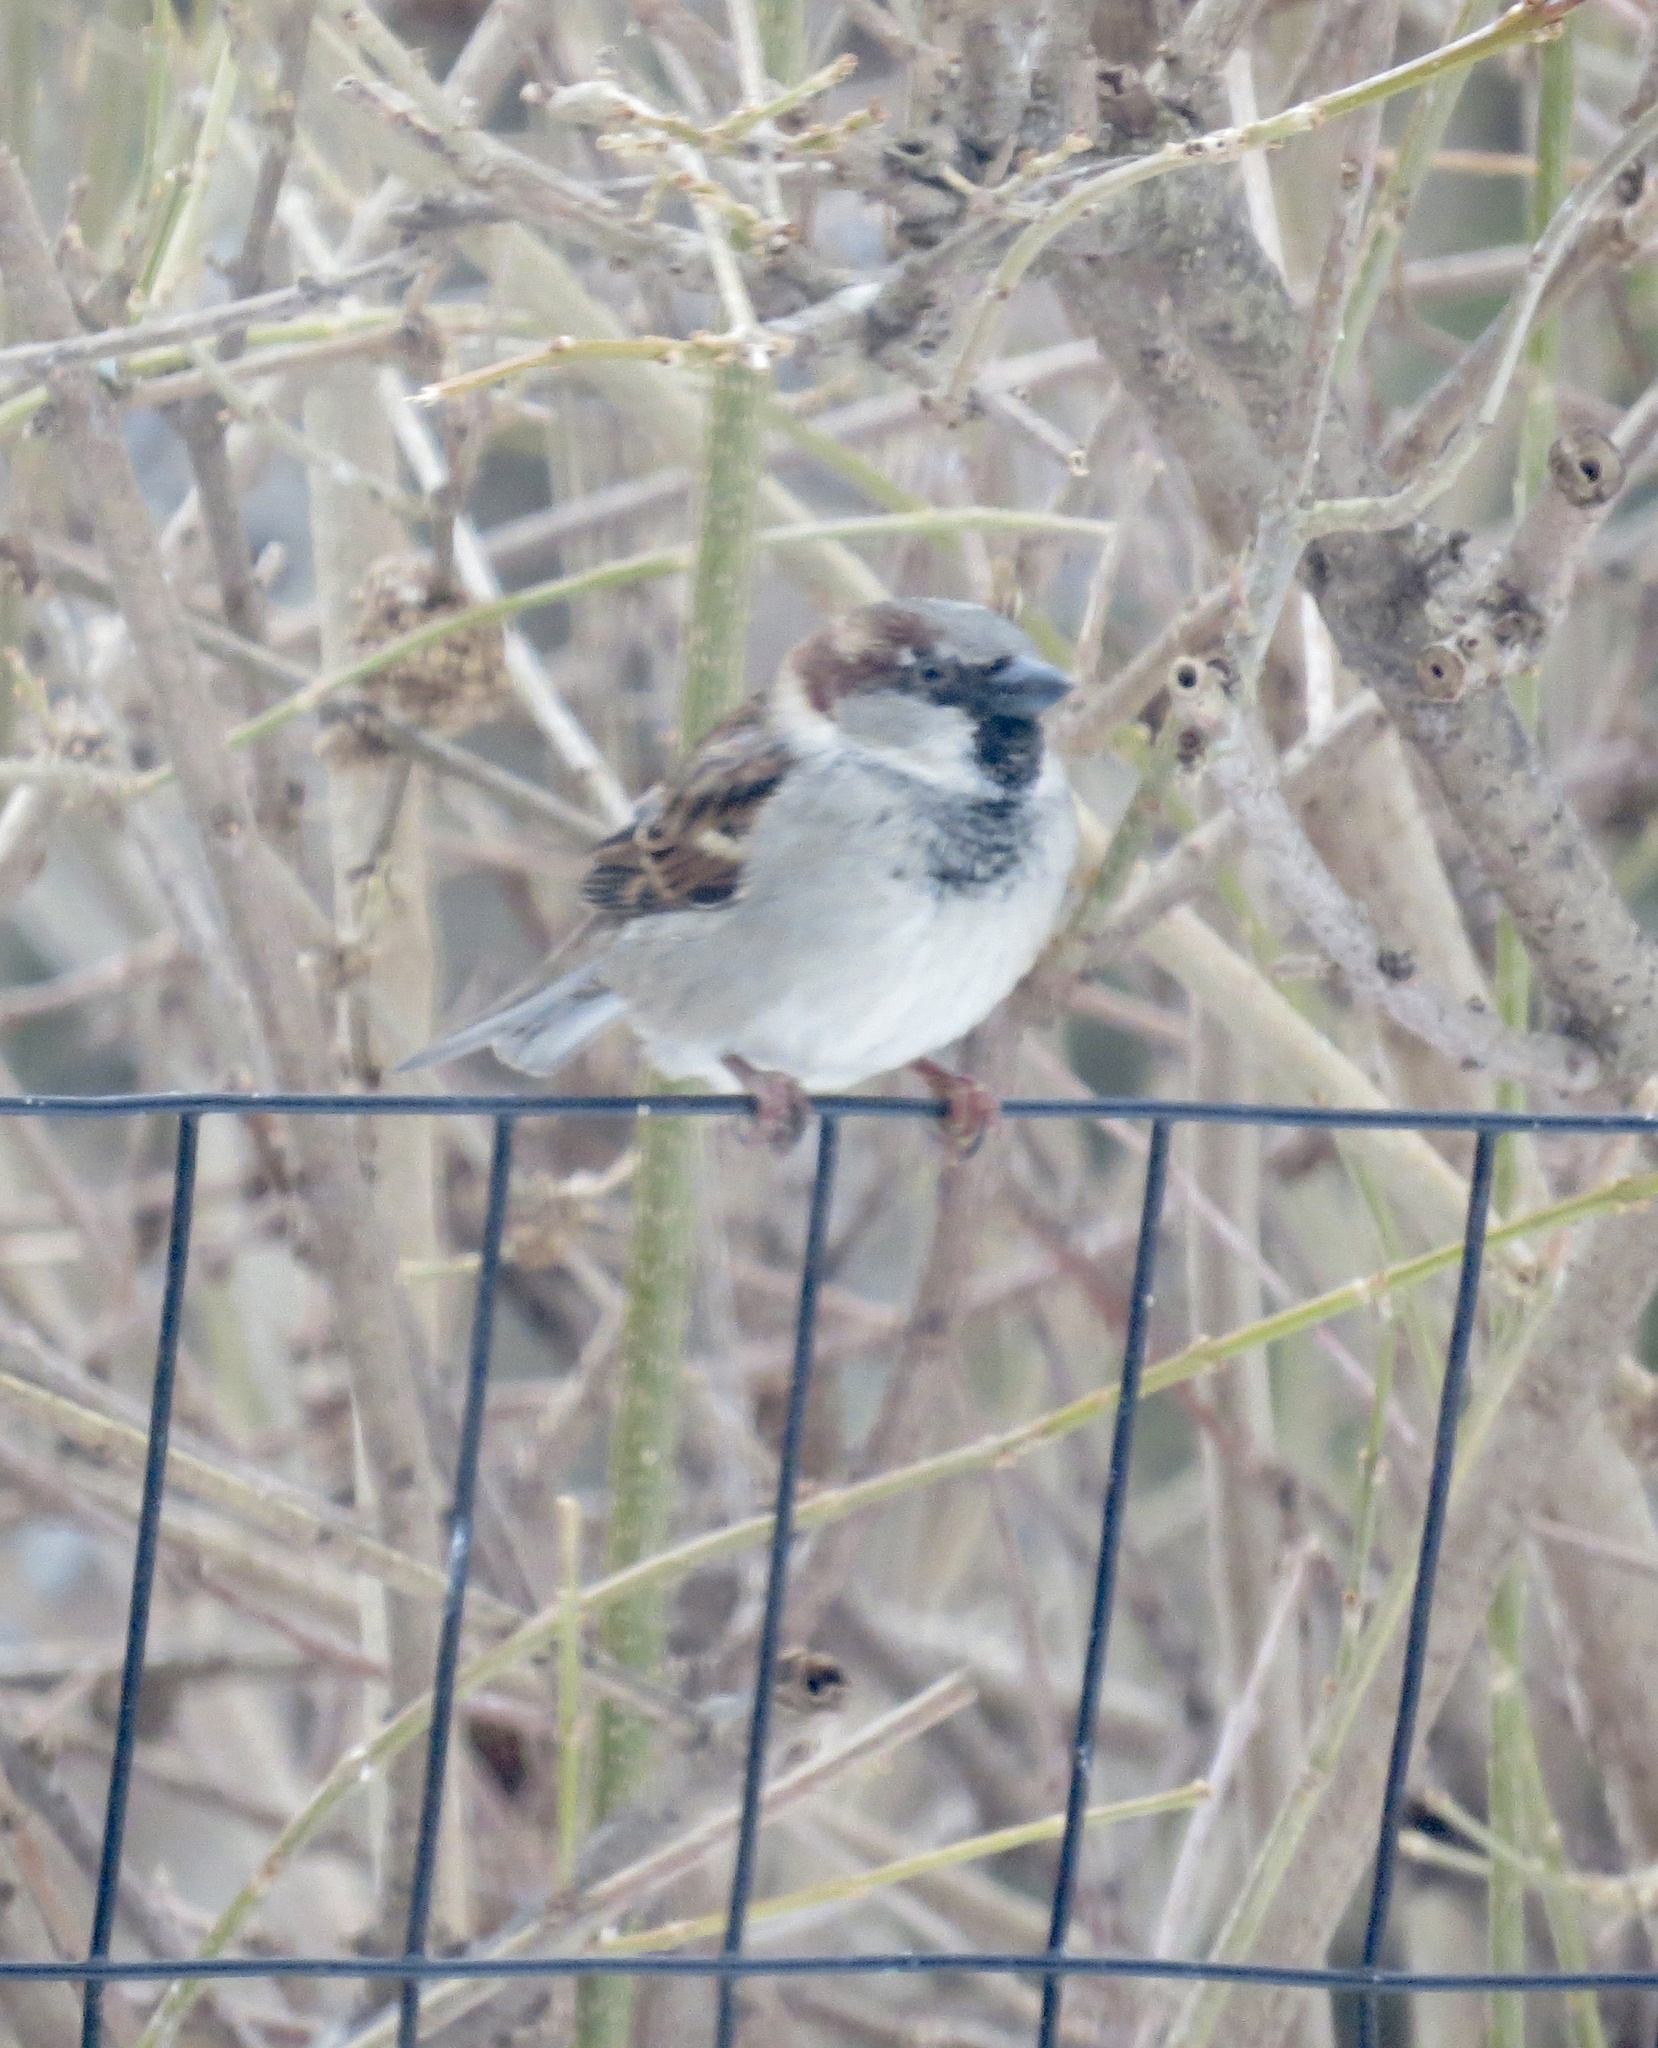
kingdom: Animalia
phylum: Chordata
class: Aves
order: Passeriformes
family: Passeridae
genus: Passer
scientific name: Passer domesticus
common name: House sparrow
